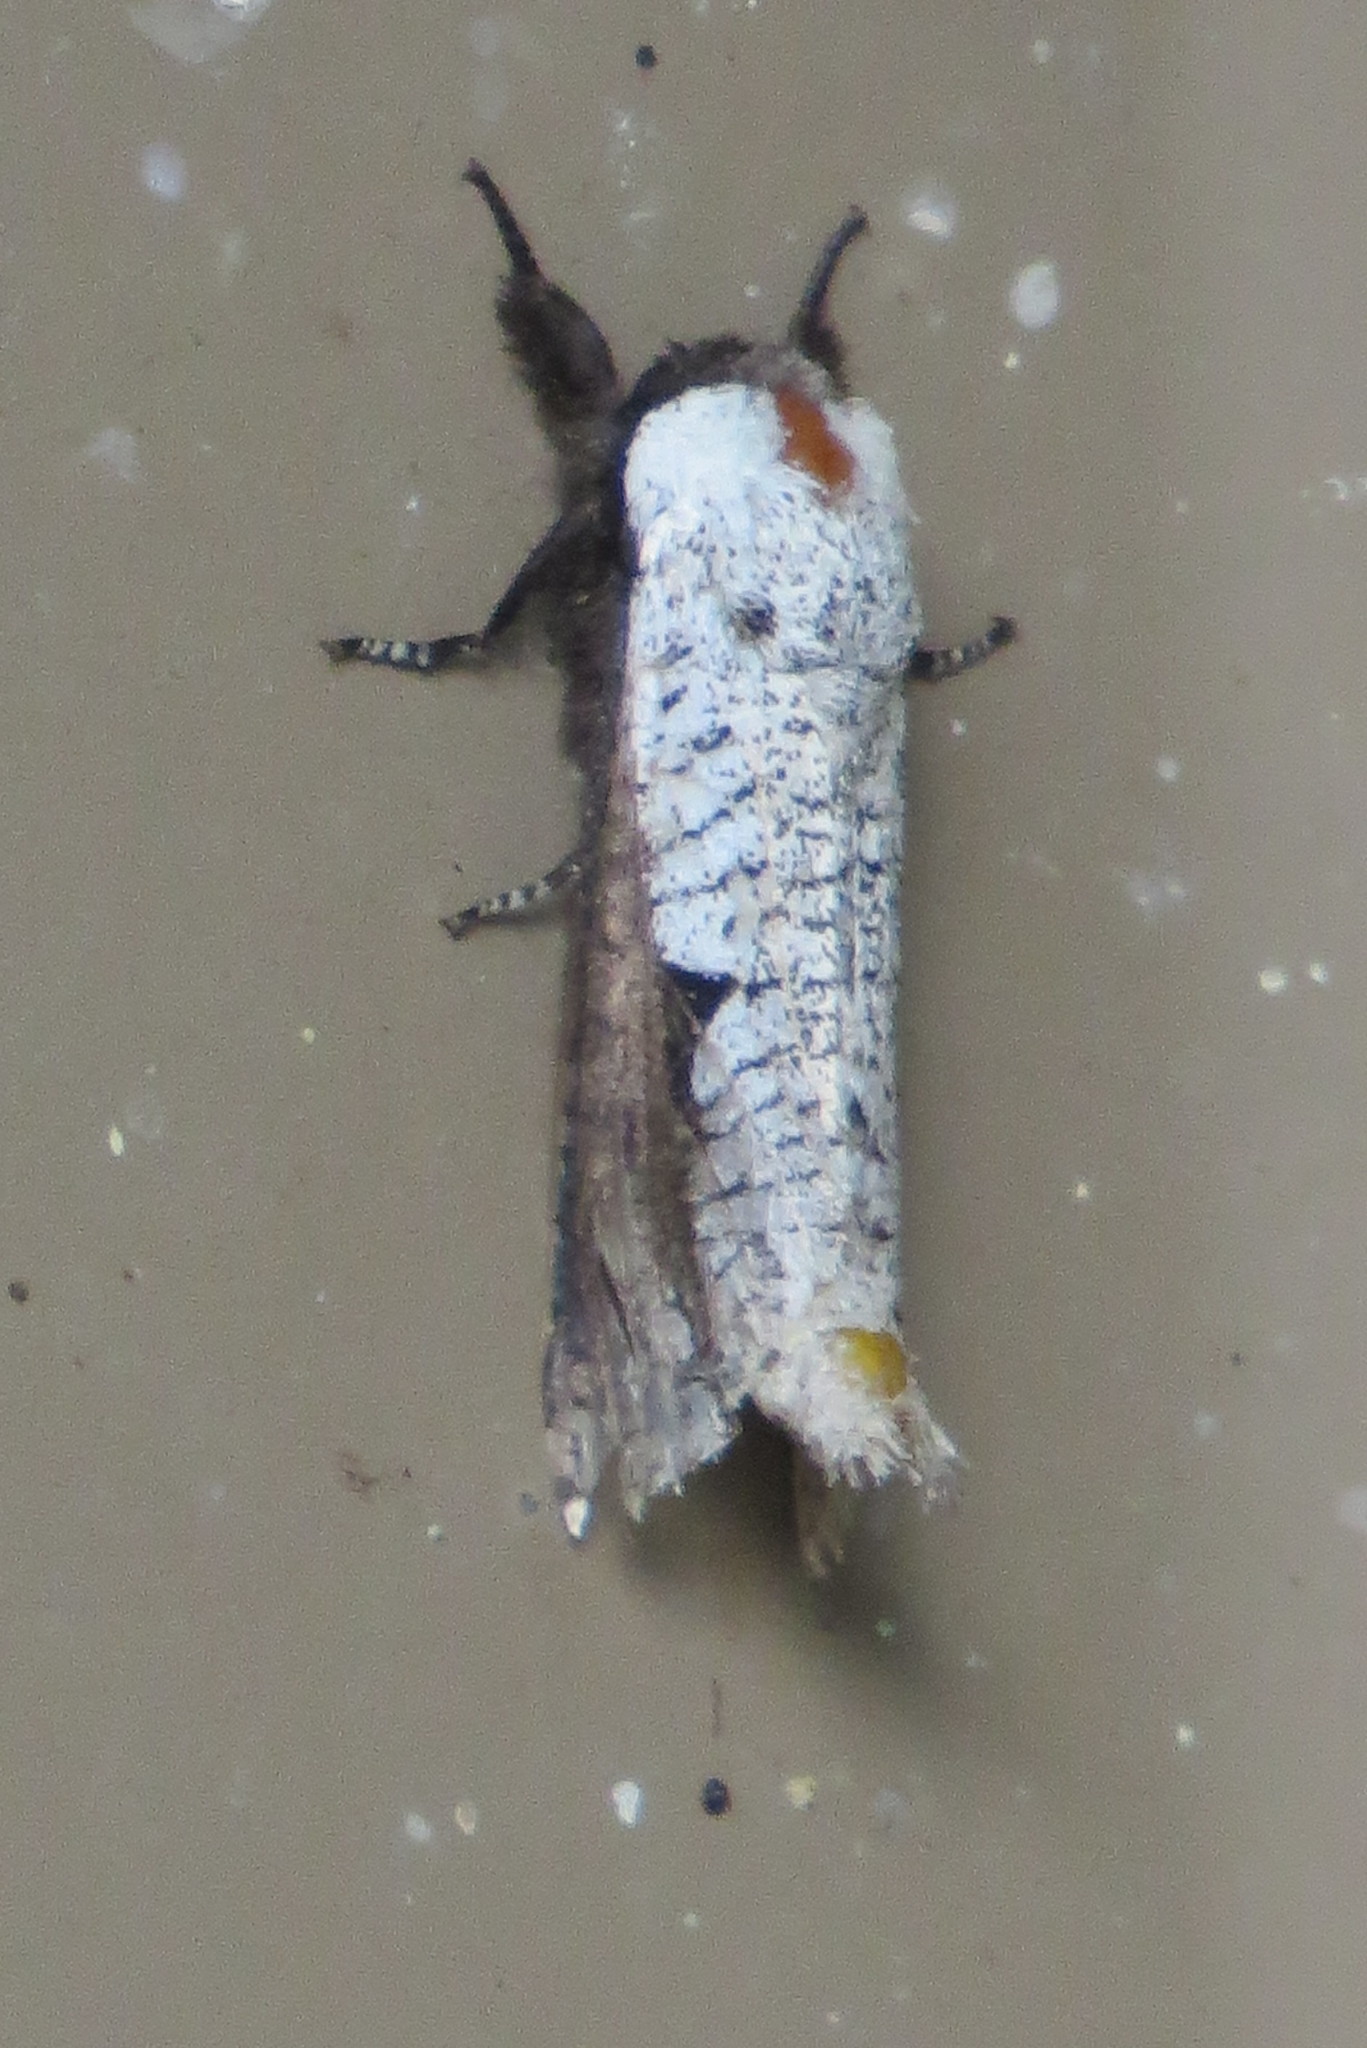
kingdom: Animalia
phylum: Arthropoda
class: Insecta
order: Lepidoptera
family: Cossidae
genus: Brypoctia
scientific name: Brypoctia
